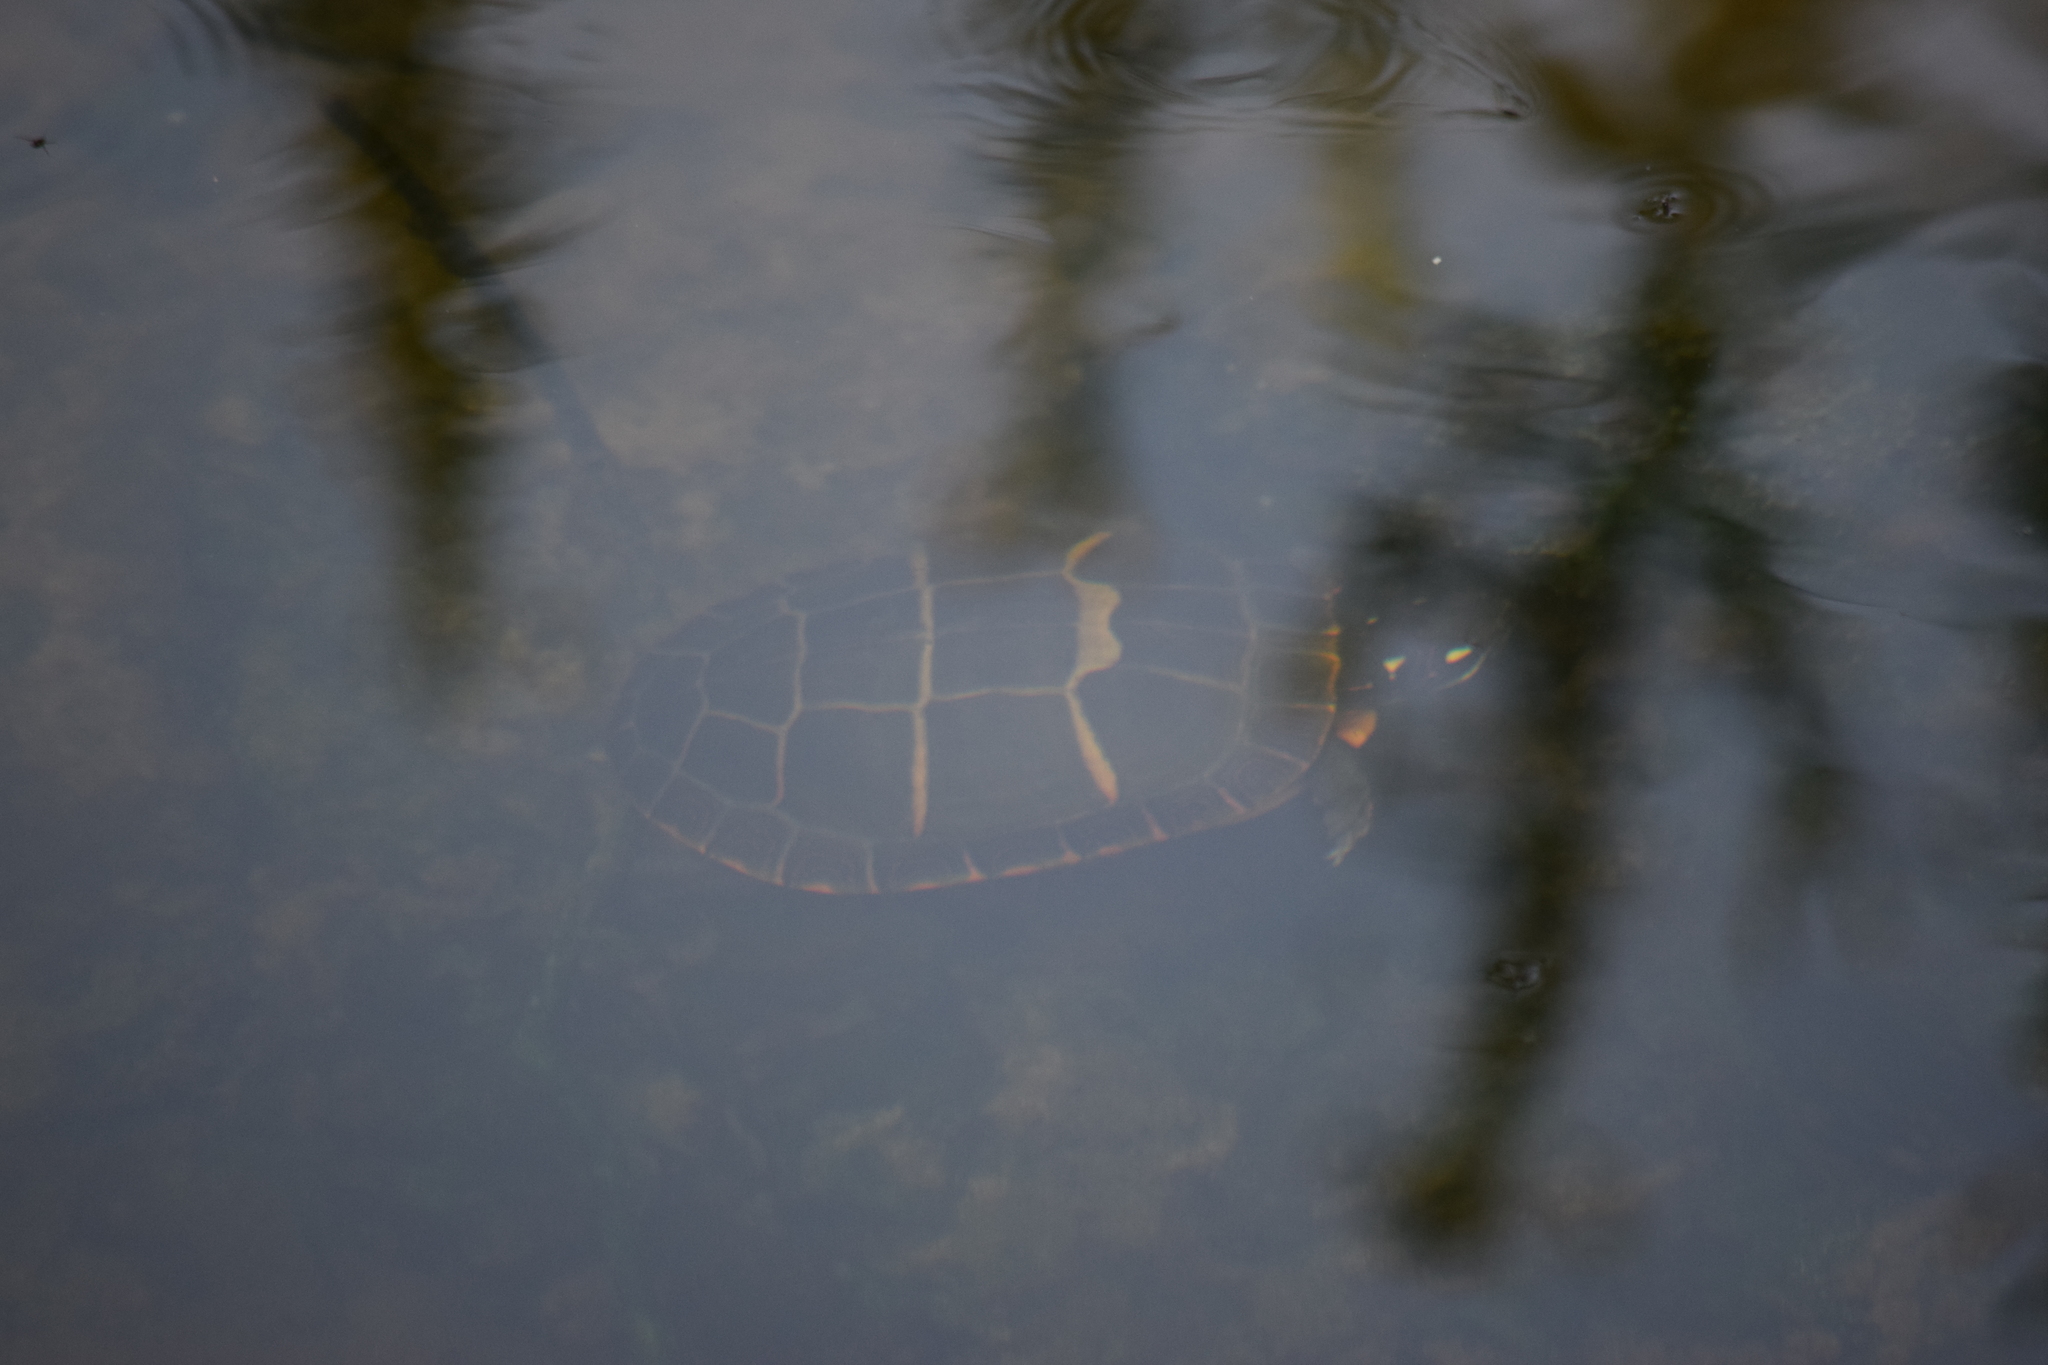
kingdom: Animalia
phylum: Chordata
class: Testudines
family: Emydidae
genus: Chrysemys
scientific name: Chrysemys picta
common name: Painted turtle
